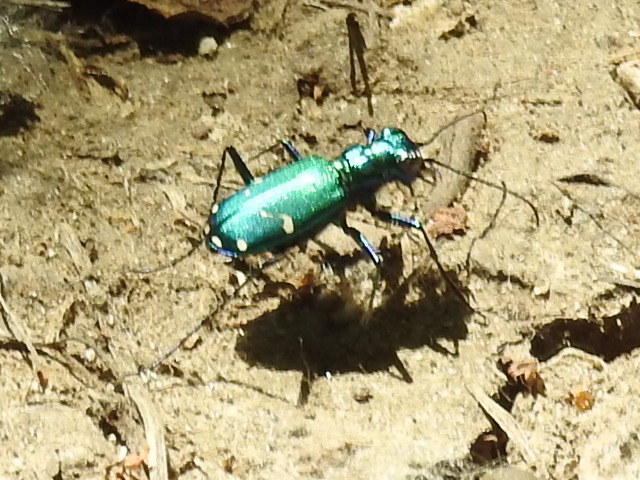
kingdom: Animalia
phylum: Arthropoda
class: Insecta
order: Coleoptera
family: Carabidae
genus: Cicindela
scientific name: Cicindela sexguttata
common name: Six-spotted tiger beetle
